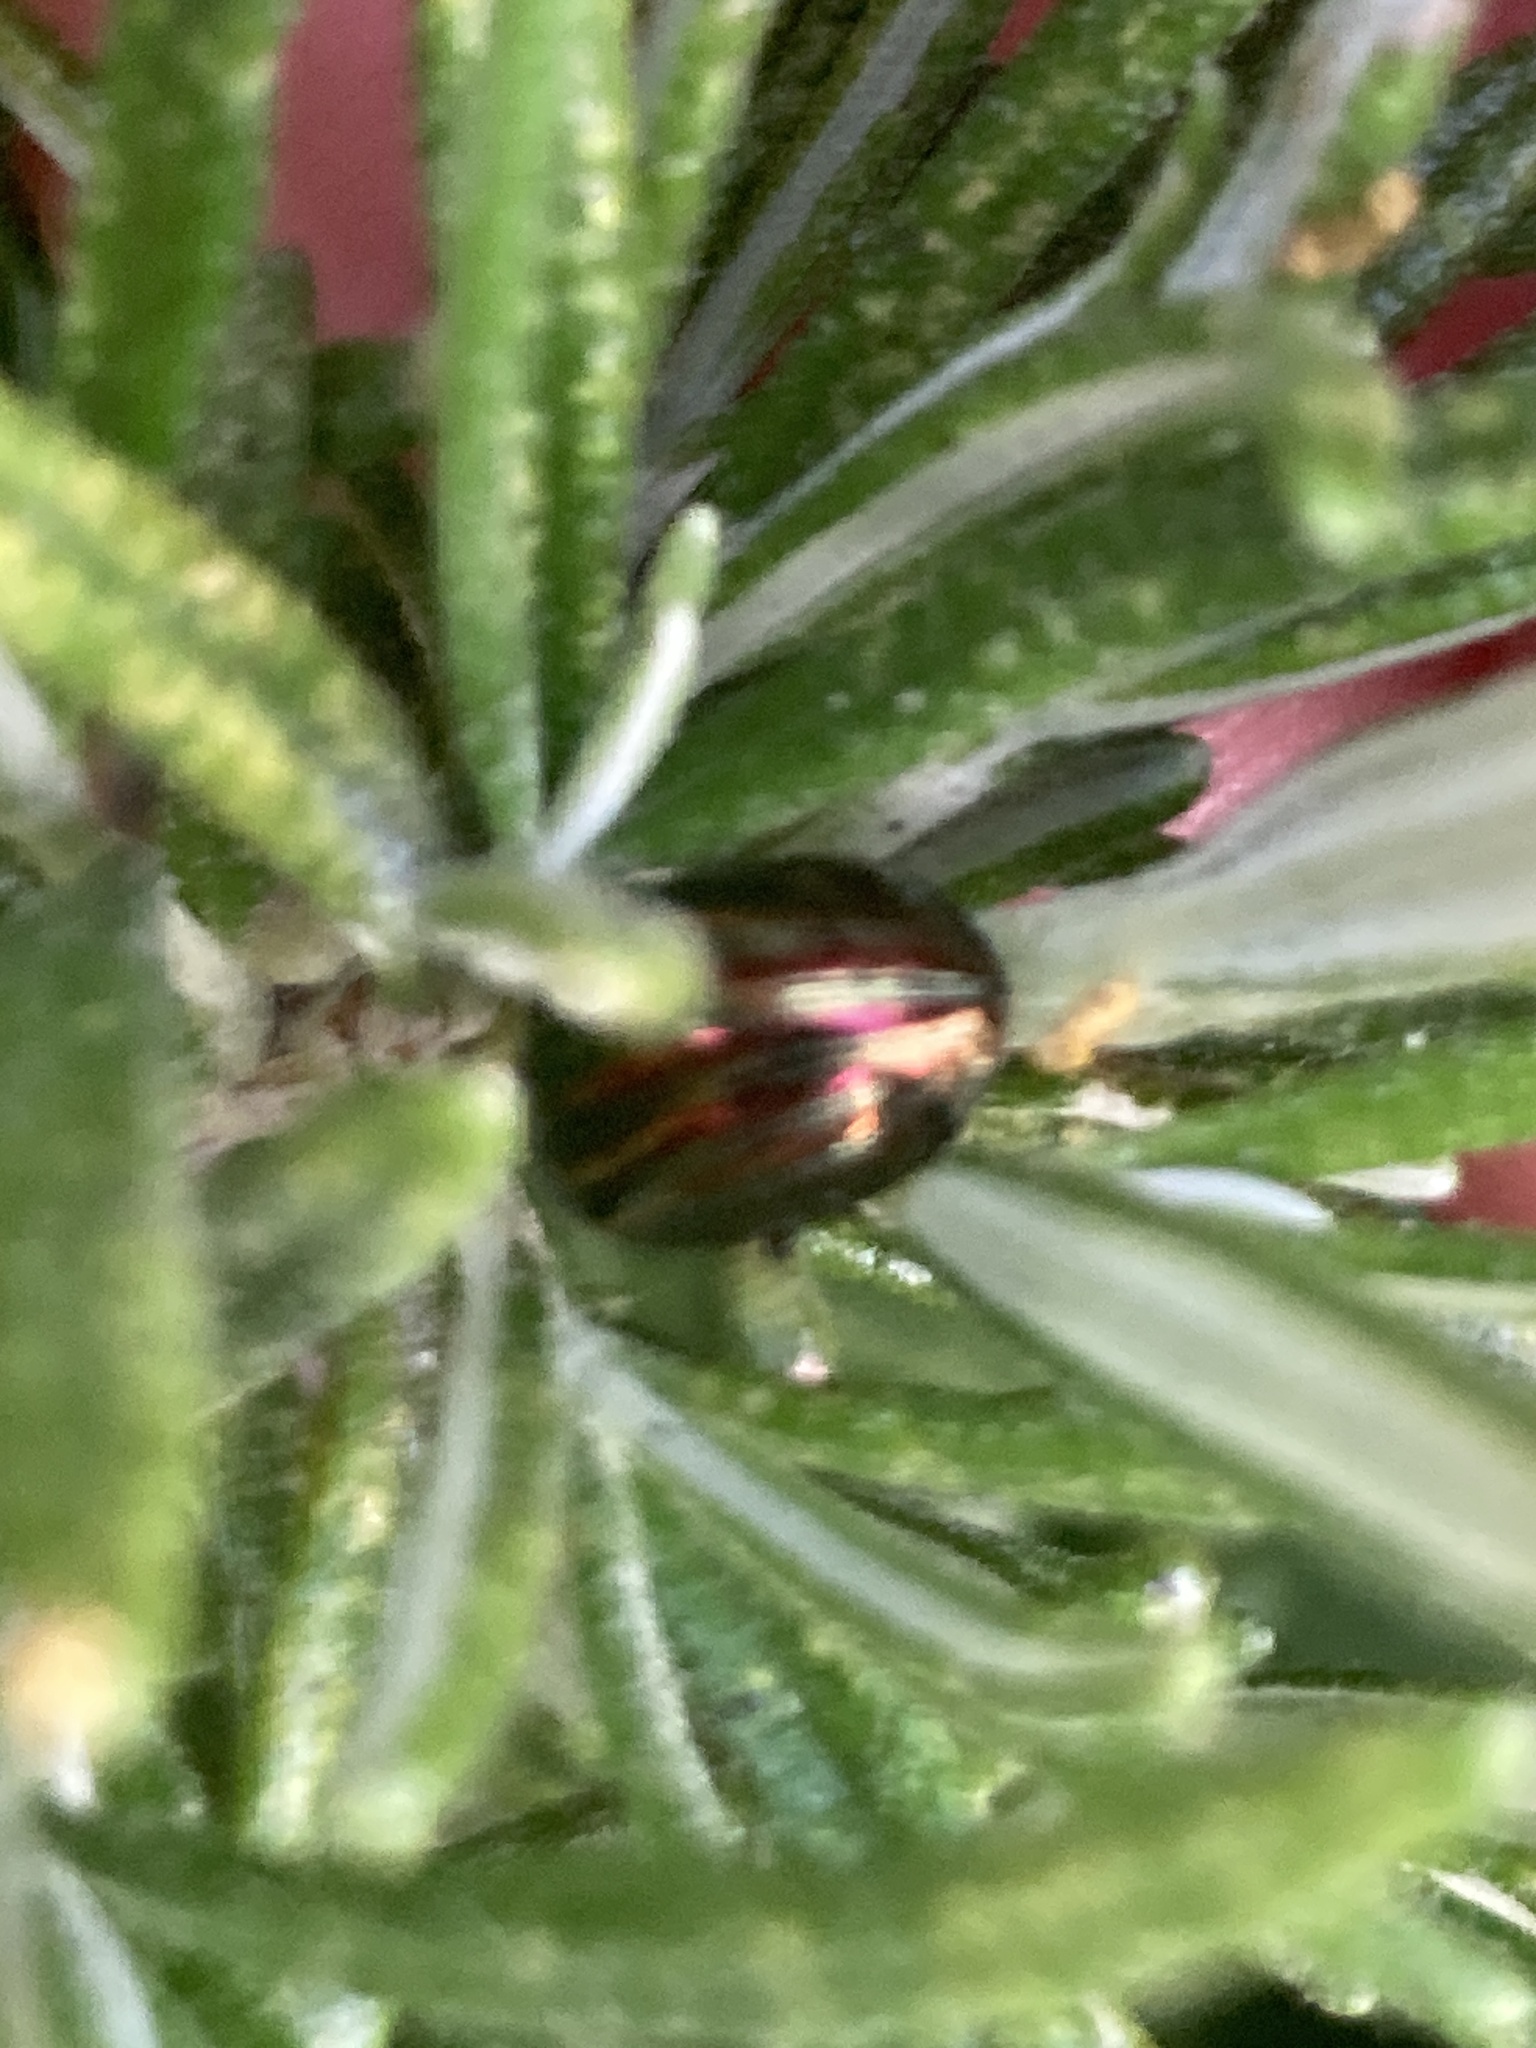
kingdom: Animalia
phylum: Arthropoda
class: Insecta
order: Coleoptera
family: Chrysomelidae
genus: Chrysolina
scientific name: Chrysolina americana
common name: Rosemary beetle
